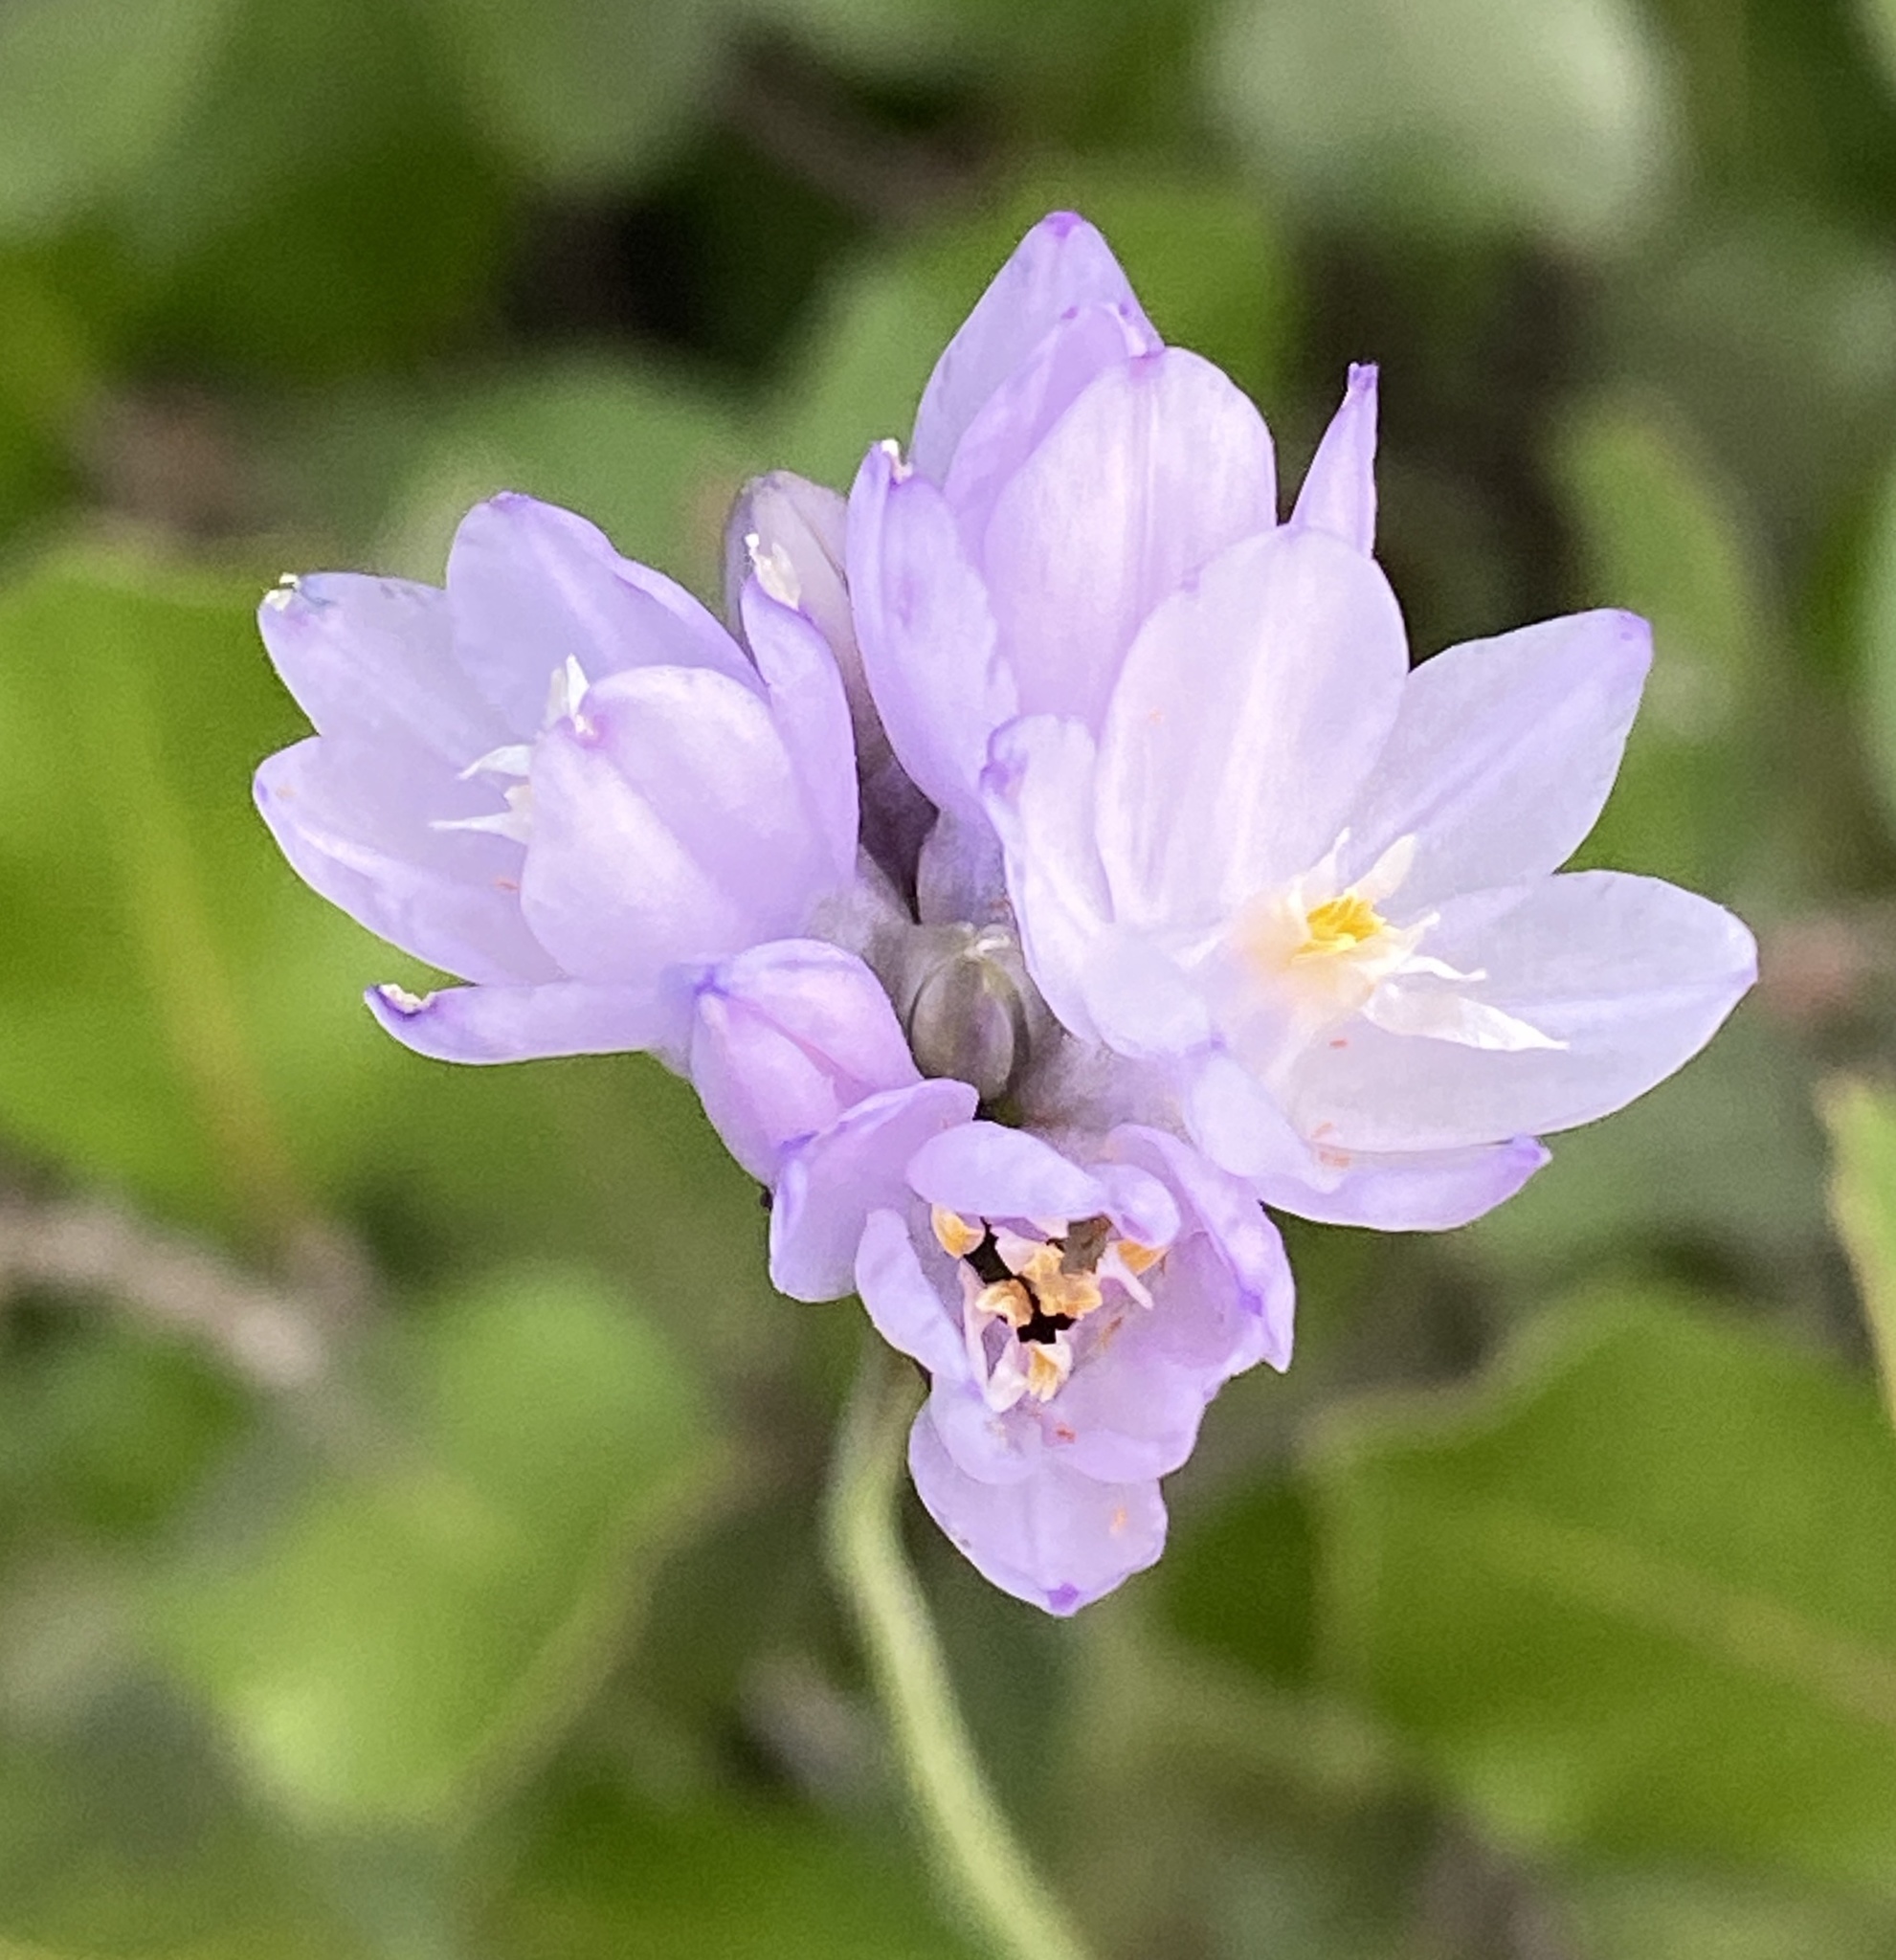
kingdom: Plantae
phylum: Tracheophyta
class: Liliopsida
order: Asparagales
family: Asparagaceae
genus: Dipterostemon
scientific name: Dipterostemon capitatus
